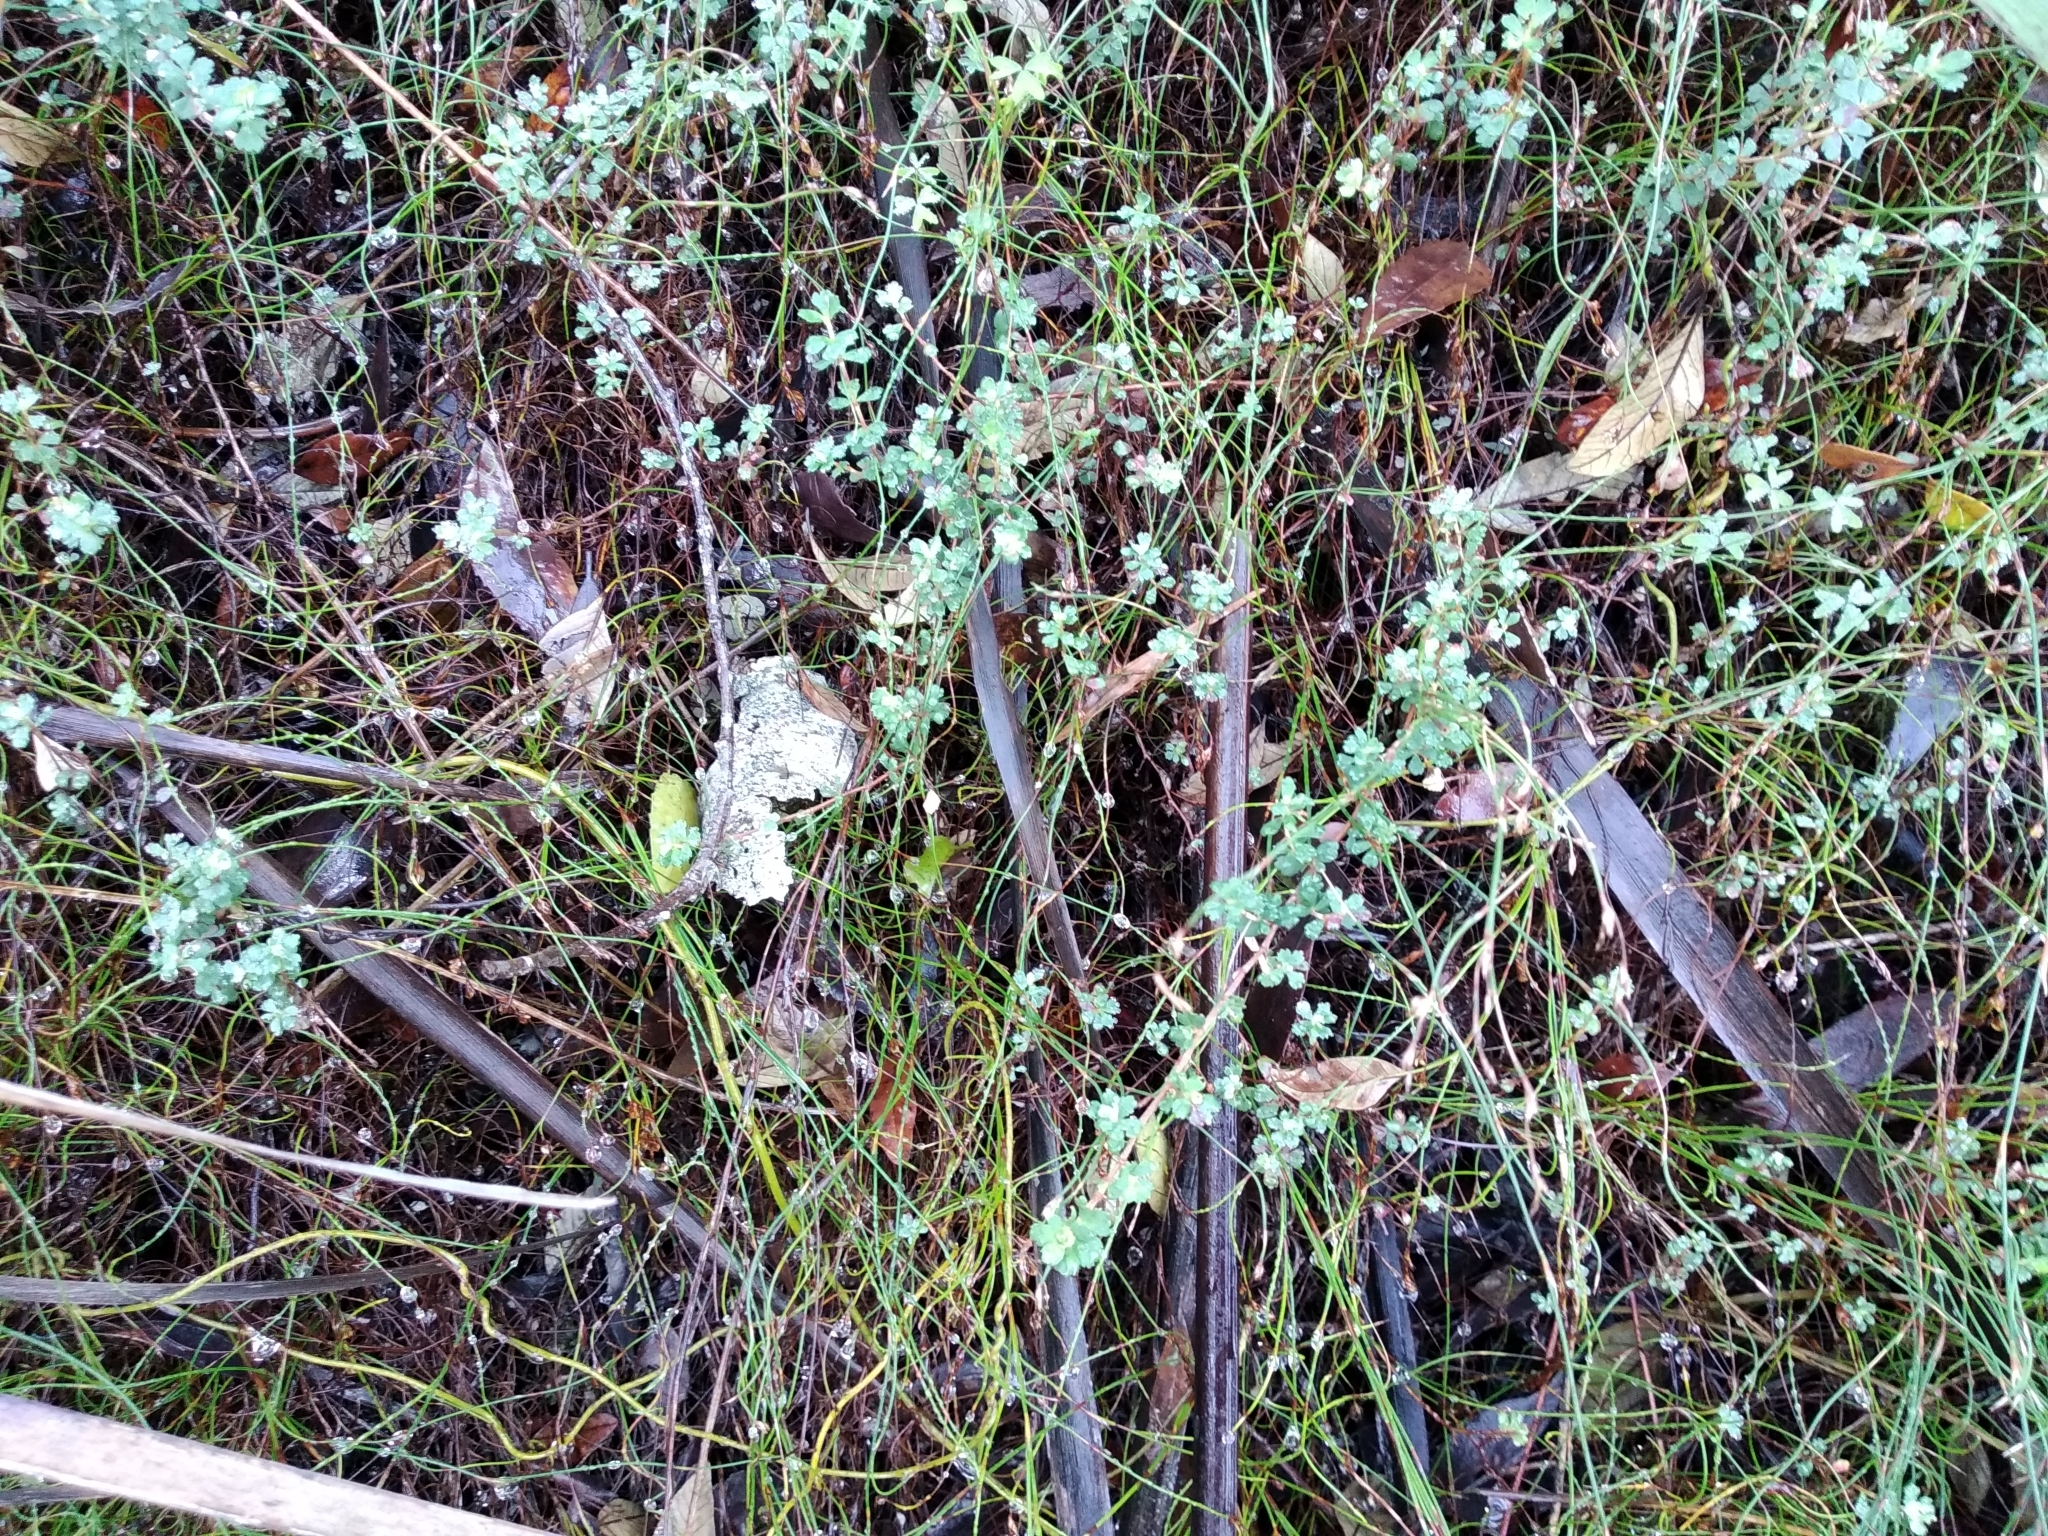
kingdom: Plantae
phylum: Tracheophyta
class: Magnoliopsida
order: Rosales
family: Rosaceae
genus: Cliffortia
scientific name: Cliffortia dentata
